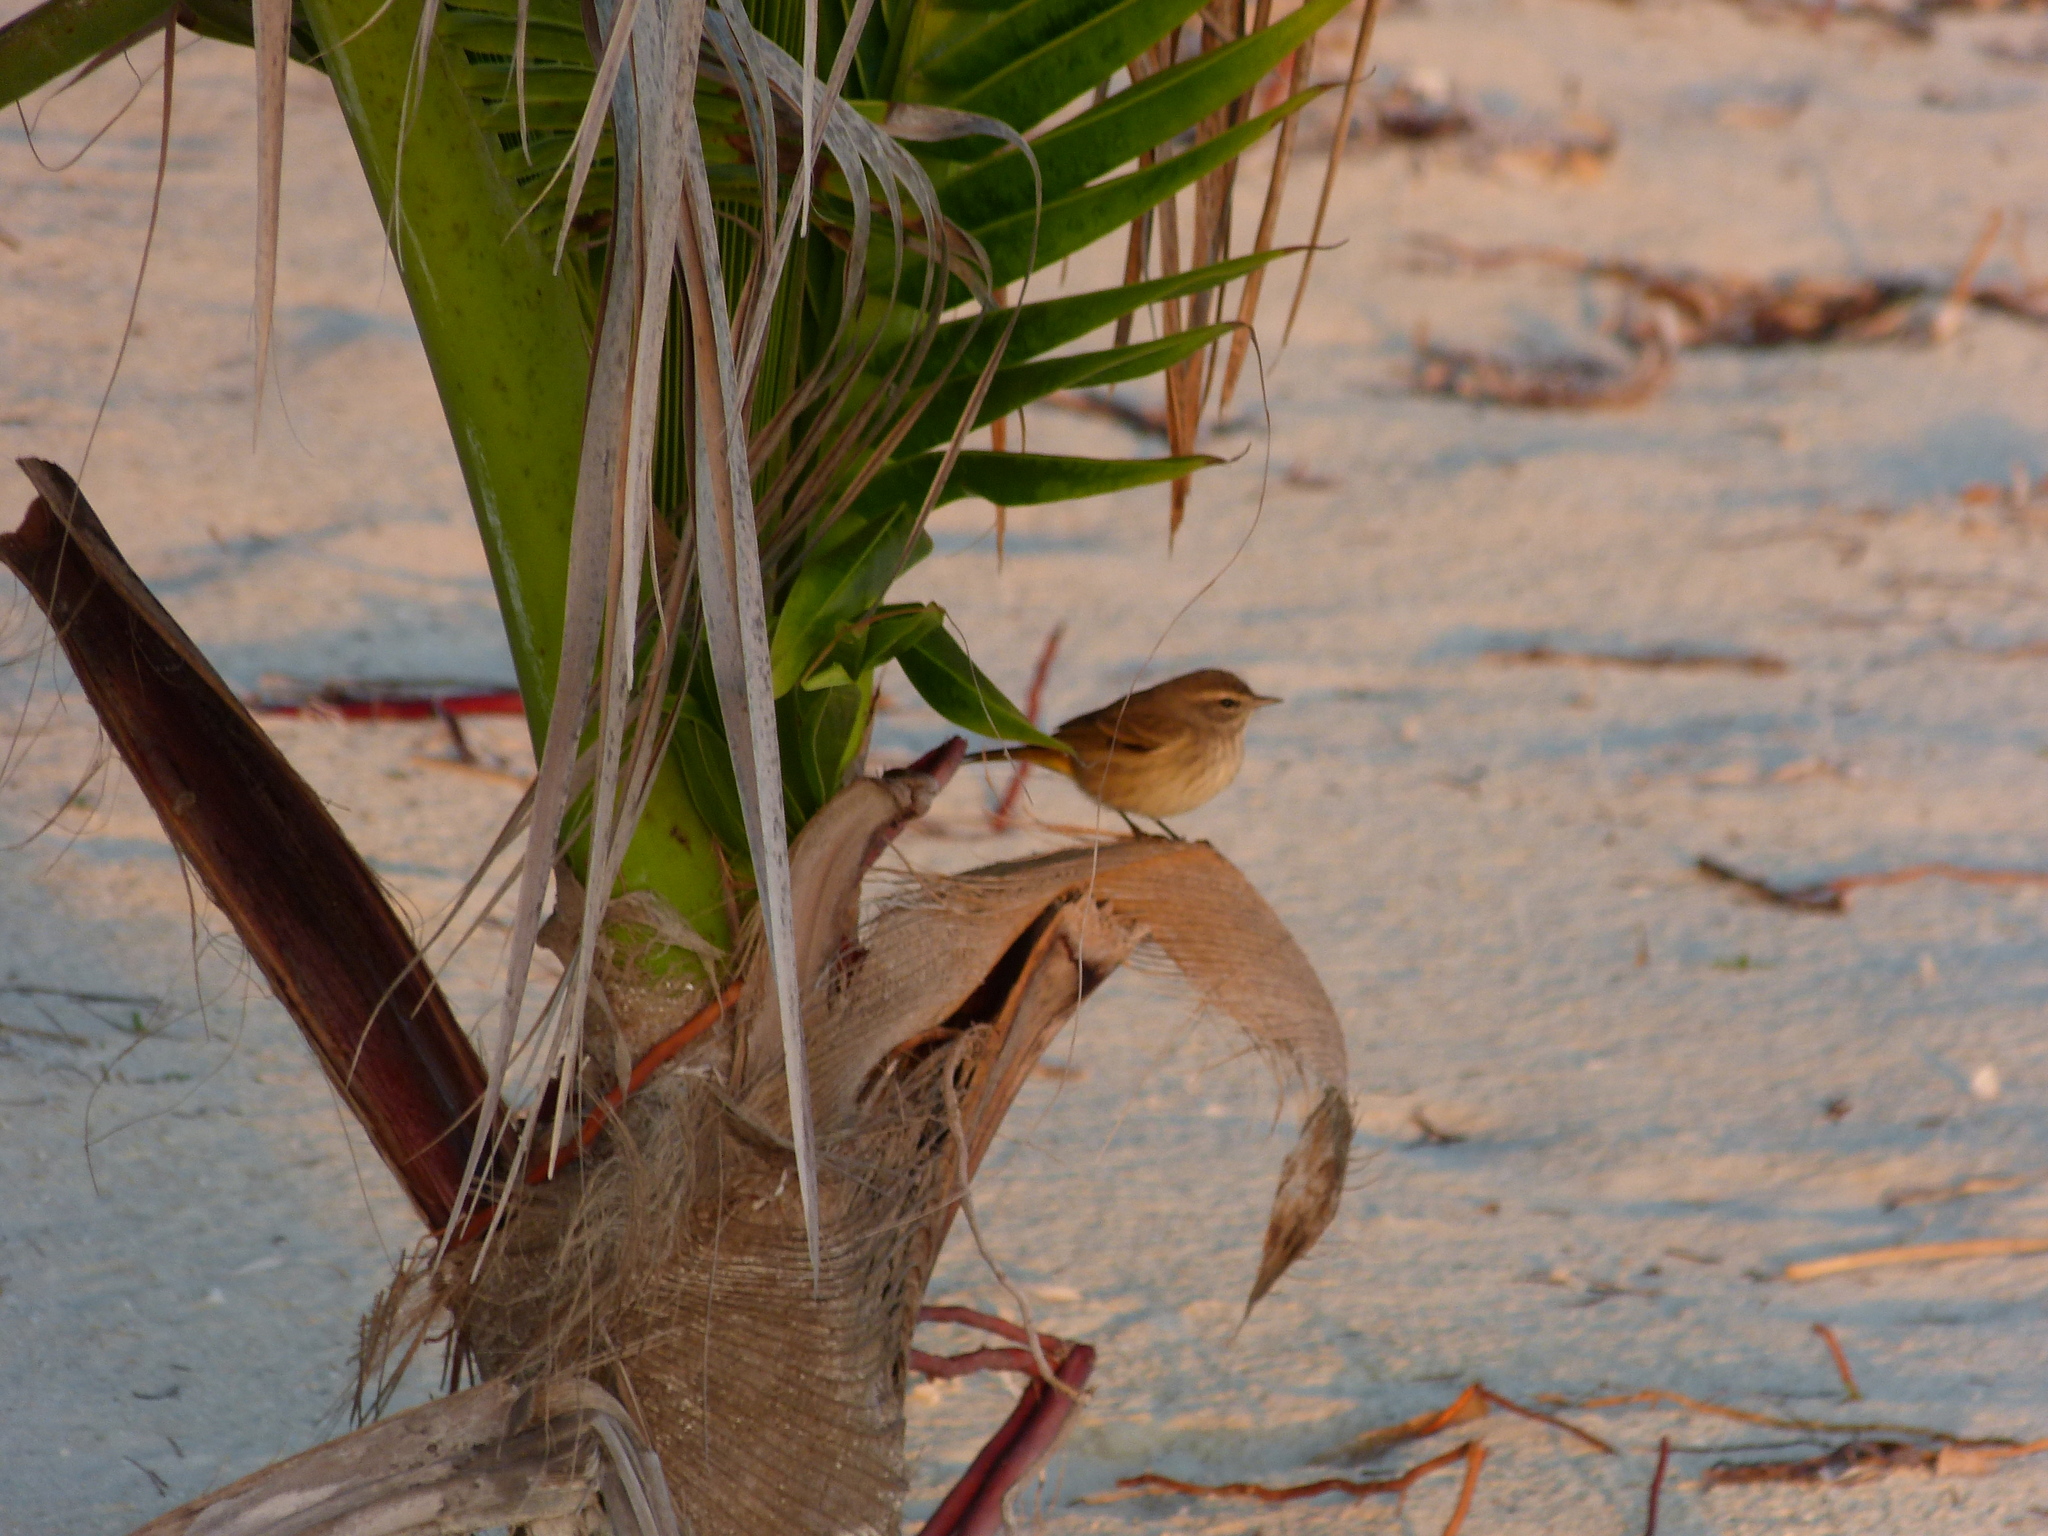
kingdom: Animalia
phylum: Chordata
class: Aves
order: Passeriformes
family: Parulidae
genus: Setophaga
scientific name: Setophaga palmarum
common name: Palm warbler
